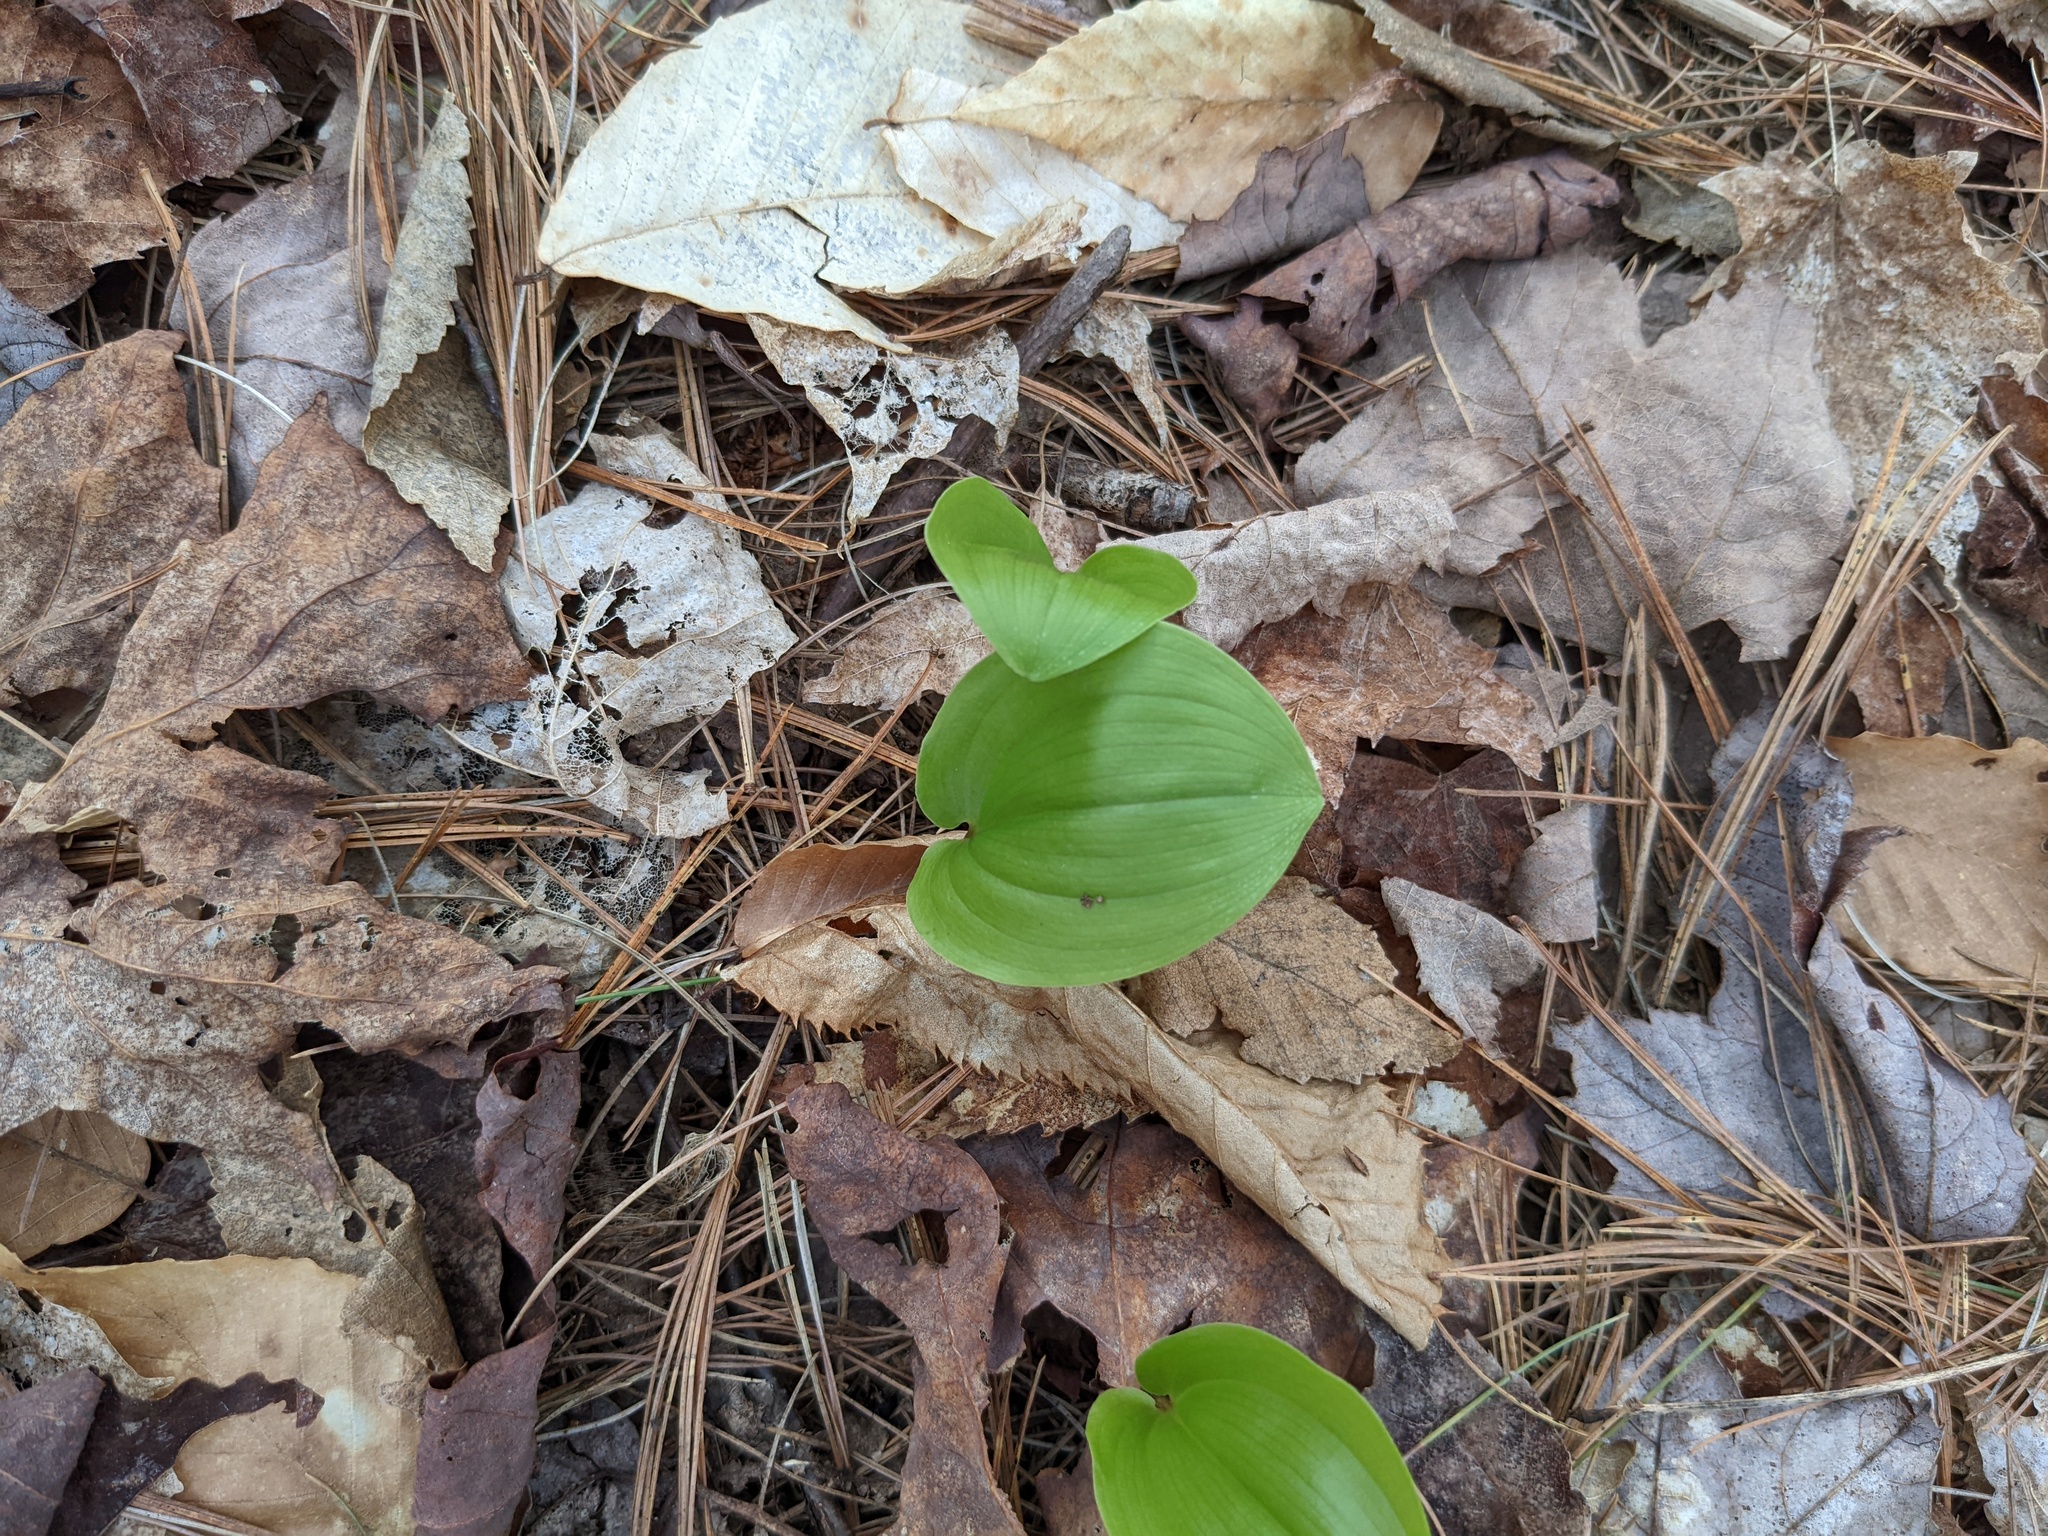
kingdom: Plantae
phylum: Tracheophyta
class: Liliopsida
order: Asparagales
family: Asparagaceae
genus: Maianthemum
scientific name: Maianthemum canadense
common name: False lily-of-the-valley
